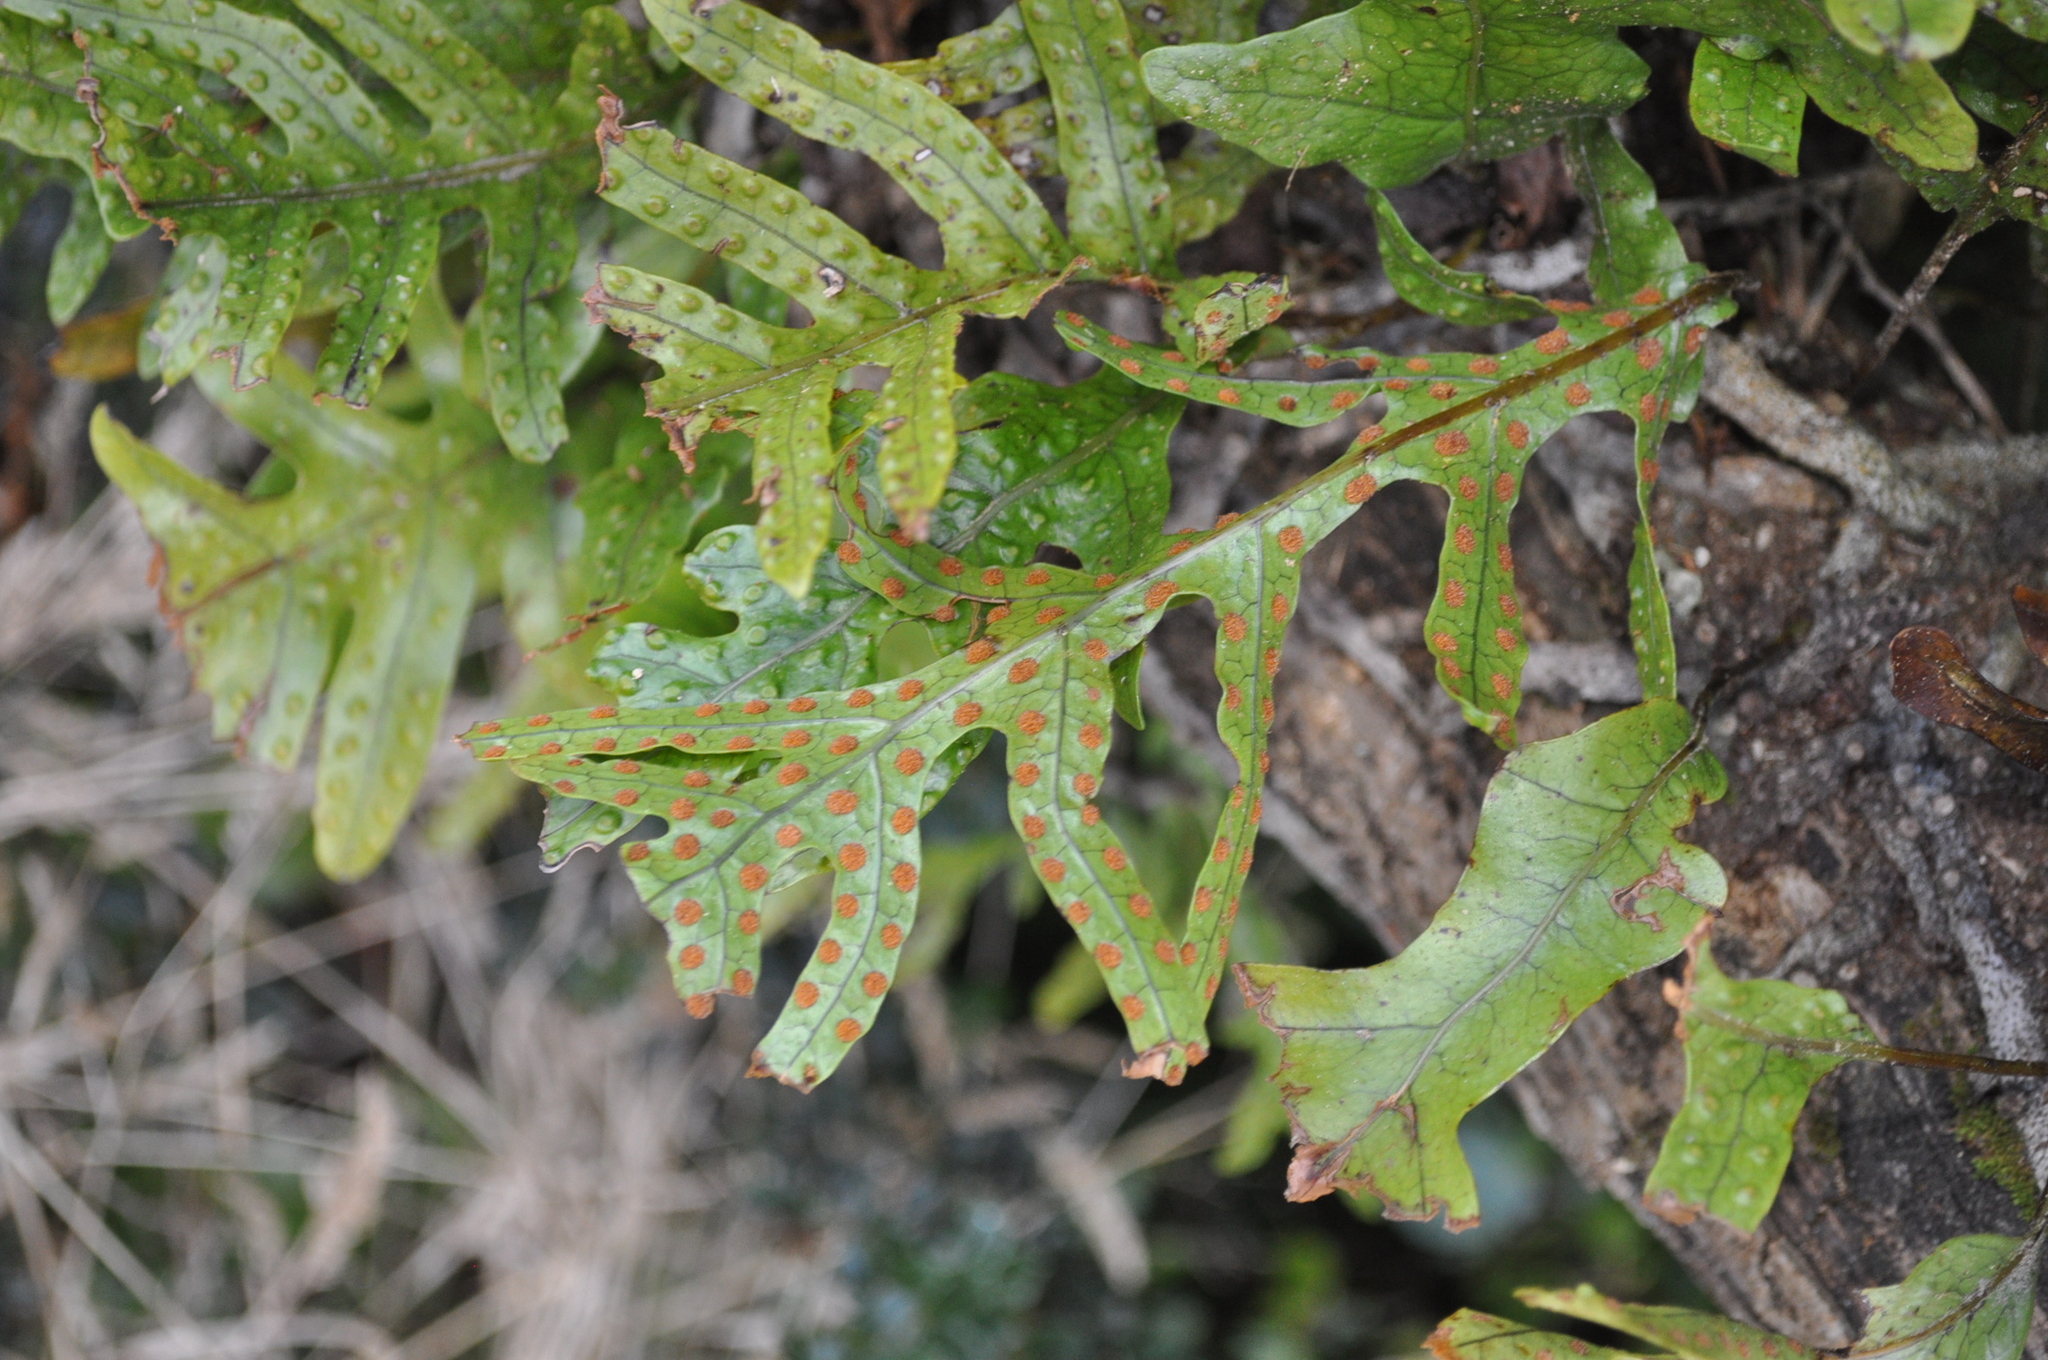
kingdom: Plantae
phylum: Tracheophyta
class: Polypodiopsida
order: Polypodiales
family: Polypodiaceae
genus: Lecanopteris
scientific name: Lecanopteris pustulata
